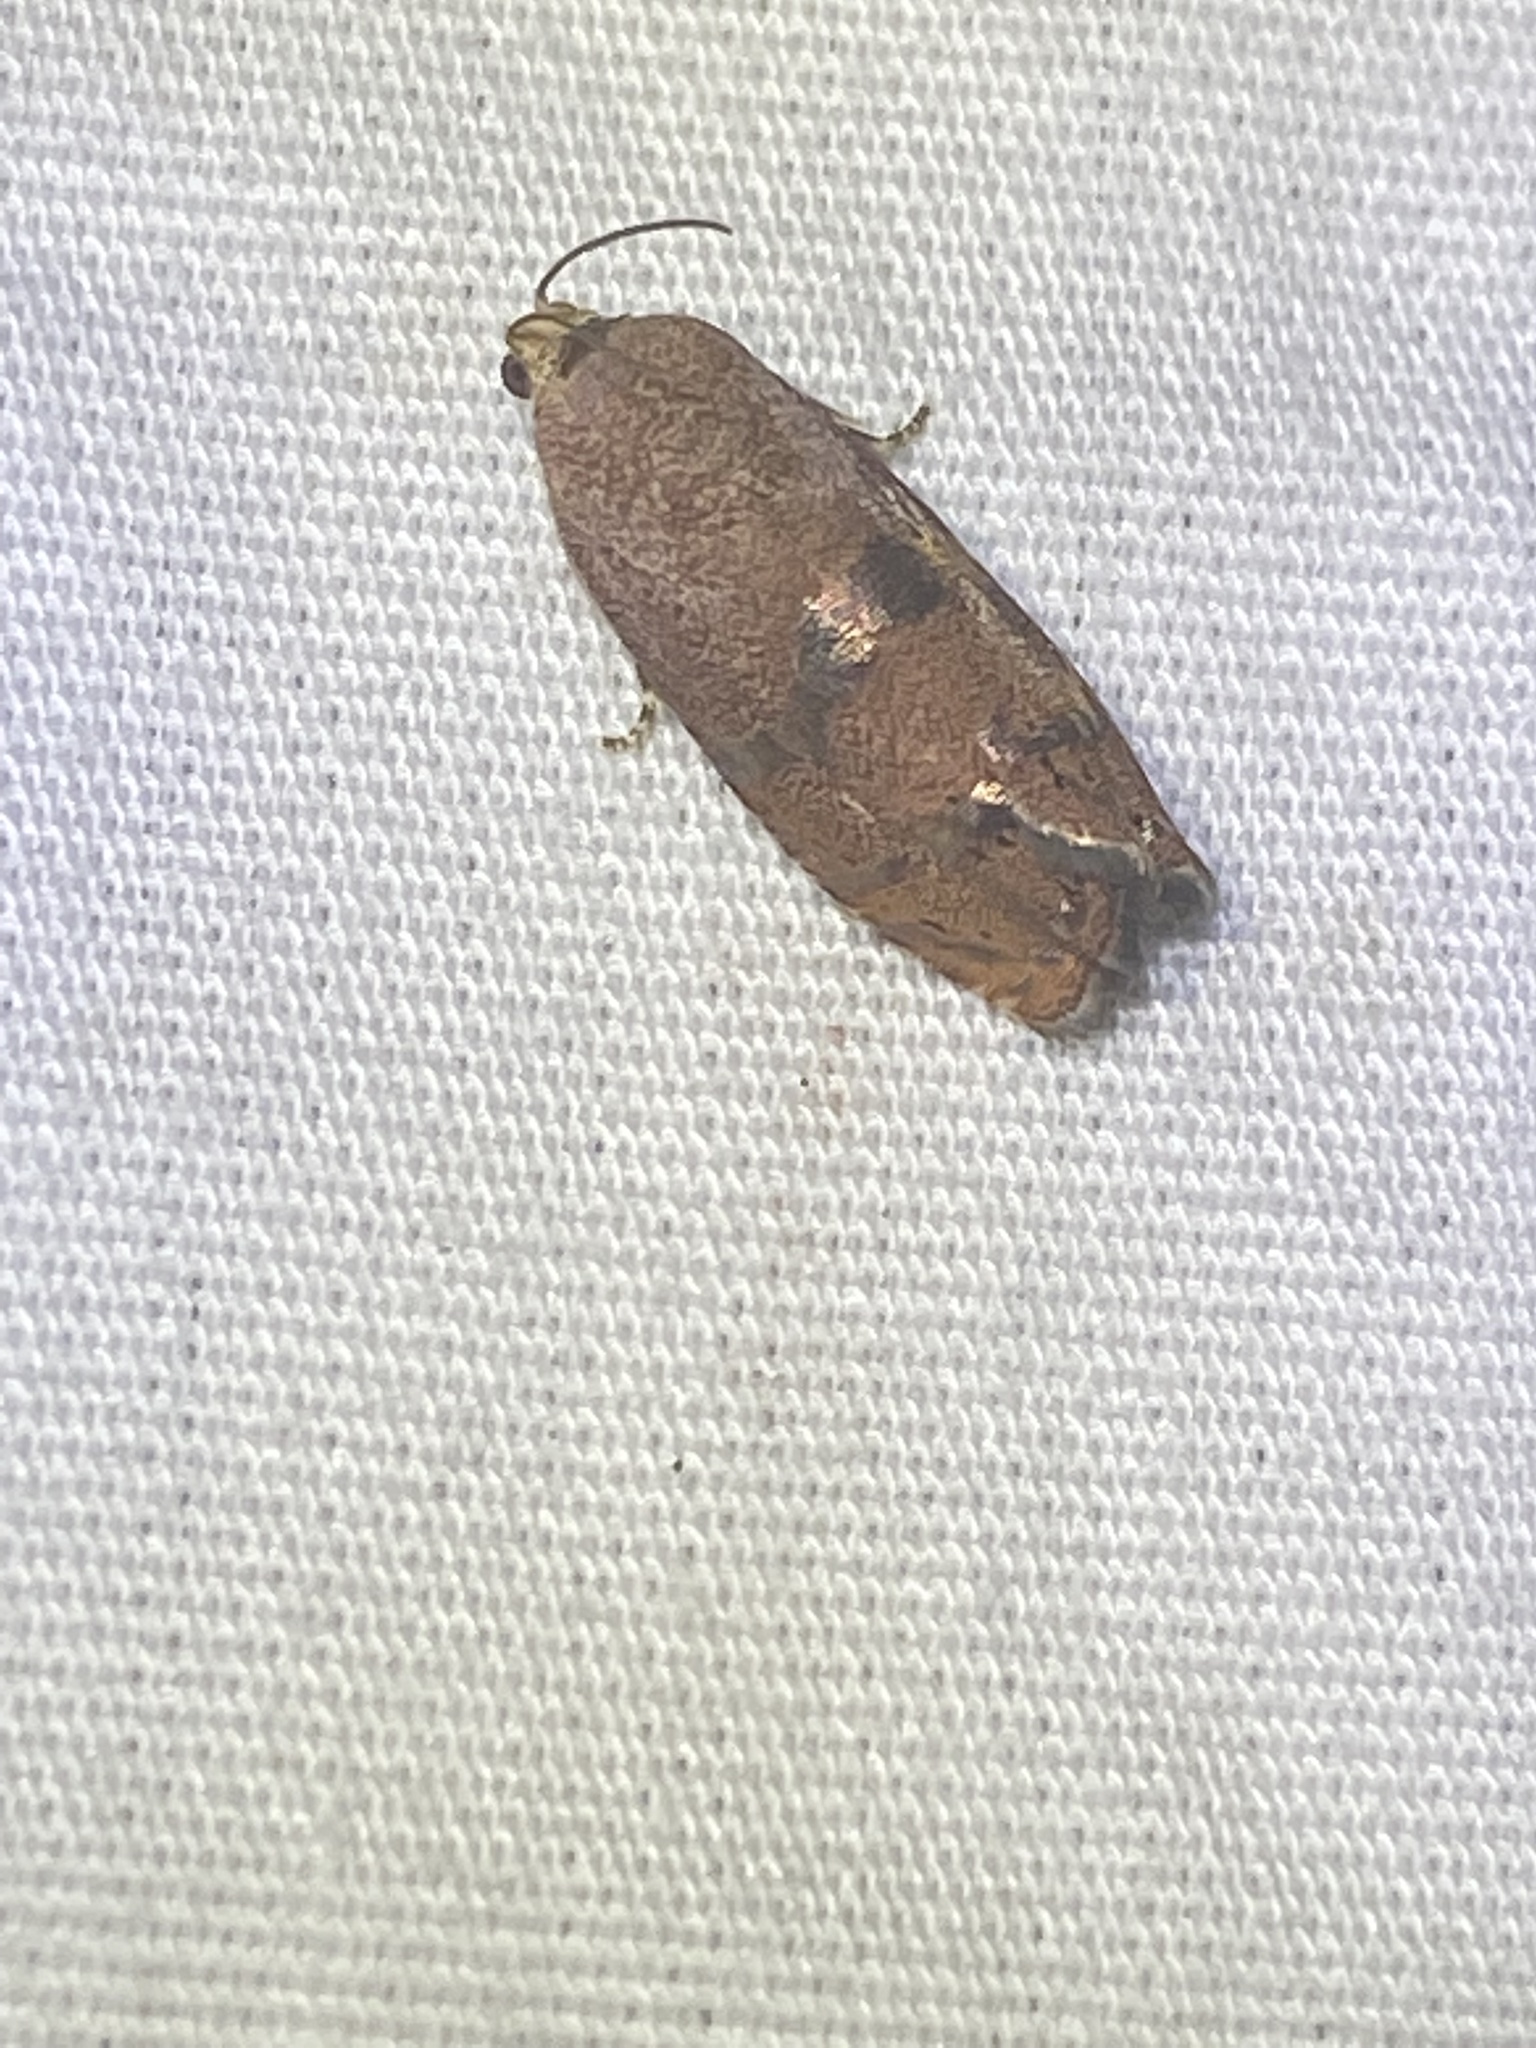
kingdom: Animalia
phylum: Arthropoda
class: Insecta
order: Lepidoptera
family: Tortricidae
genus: Cydia
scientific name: Cydia latiferreana
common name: Filbertworm moth
